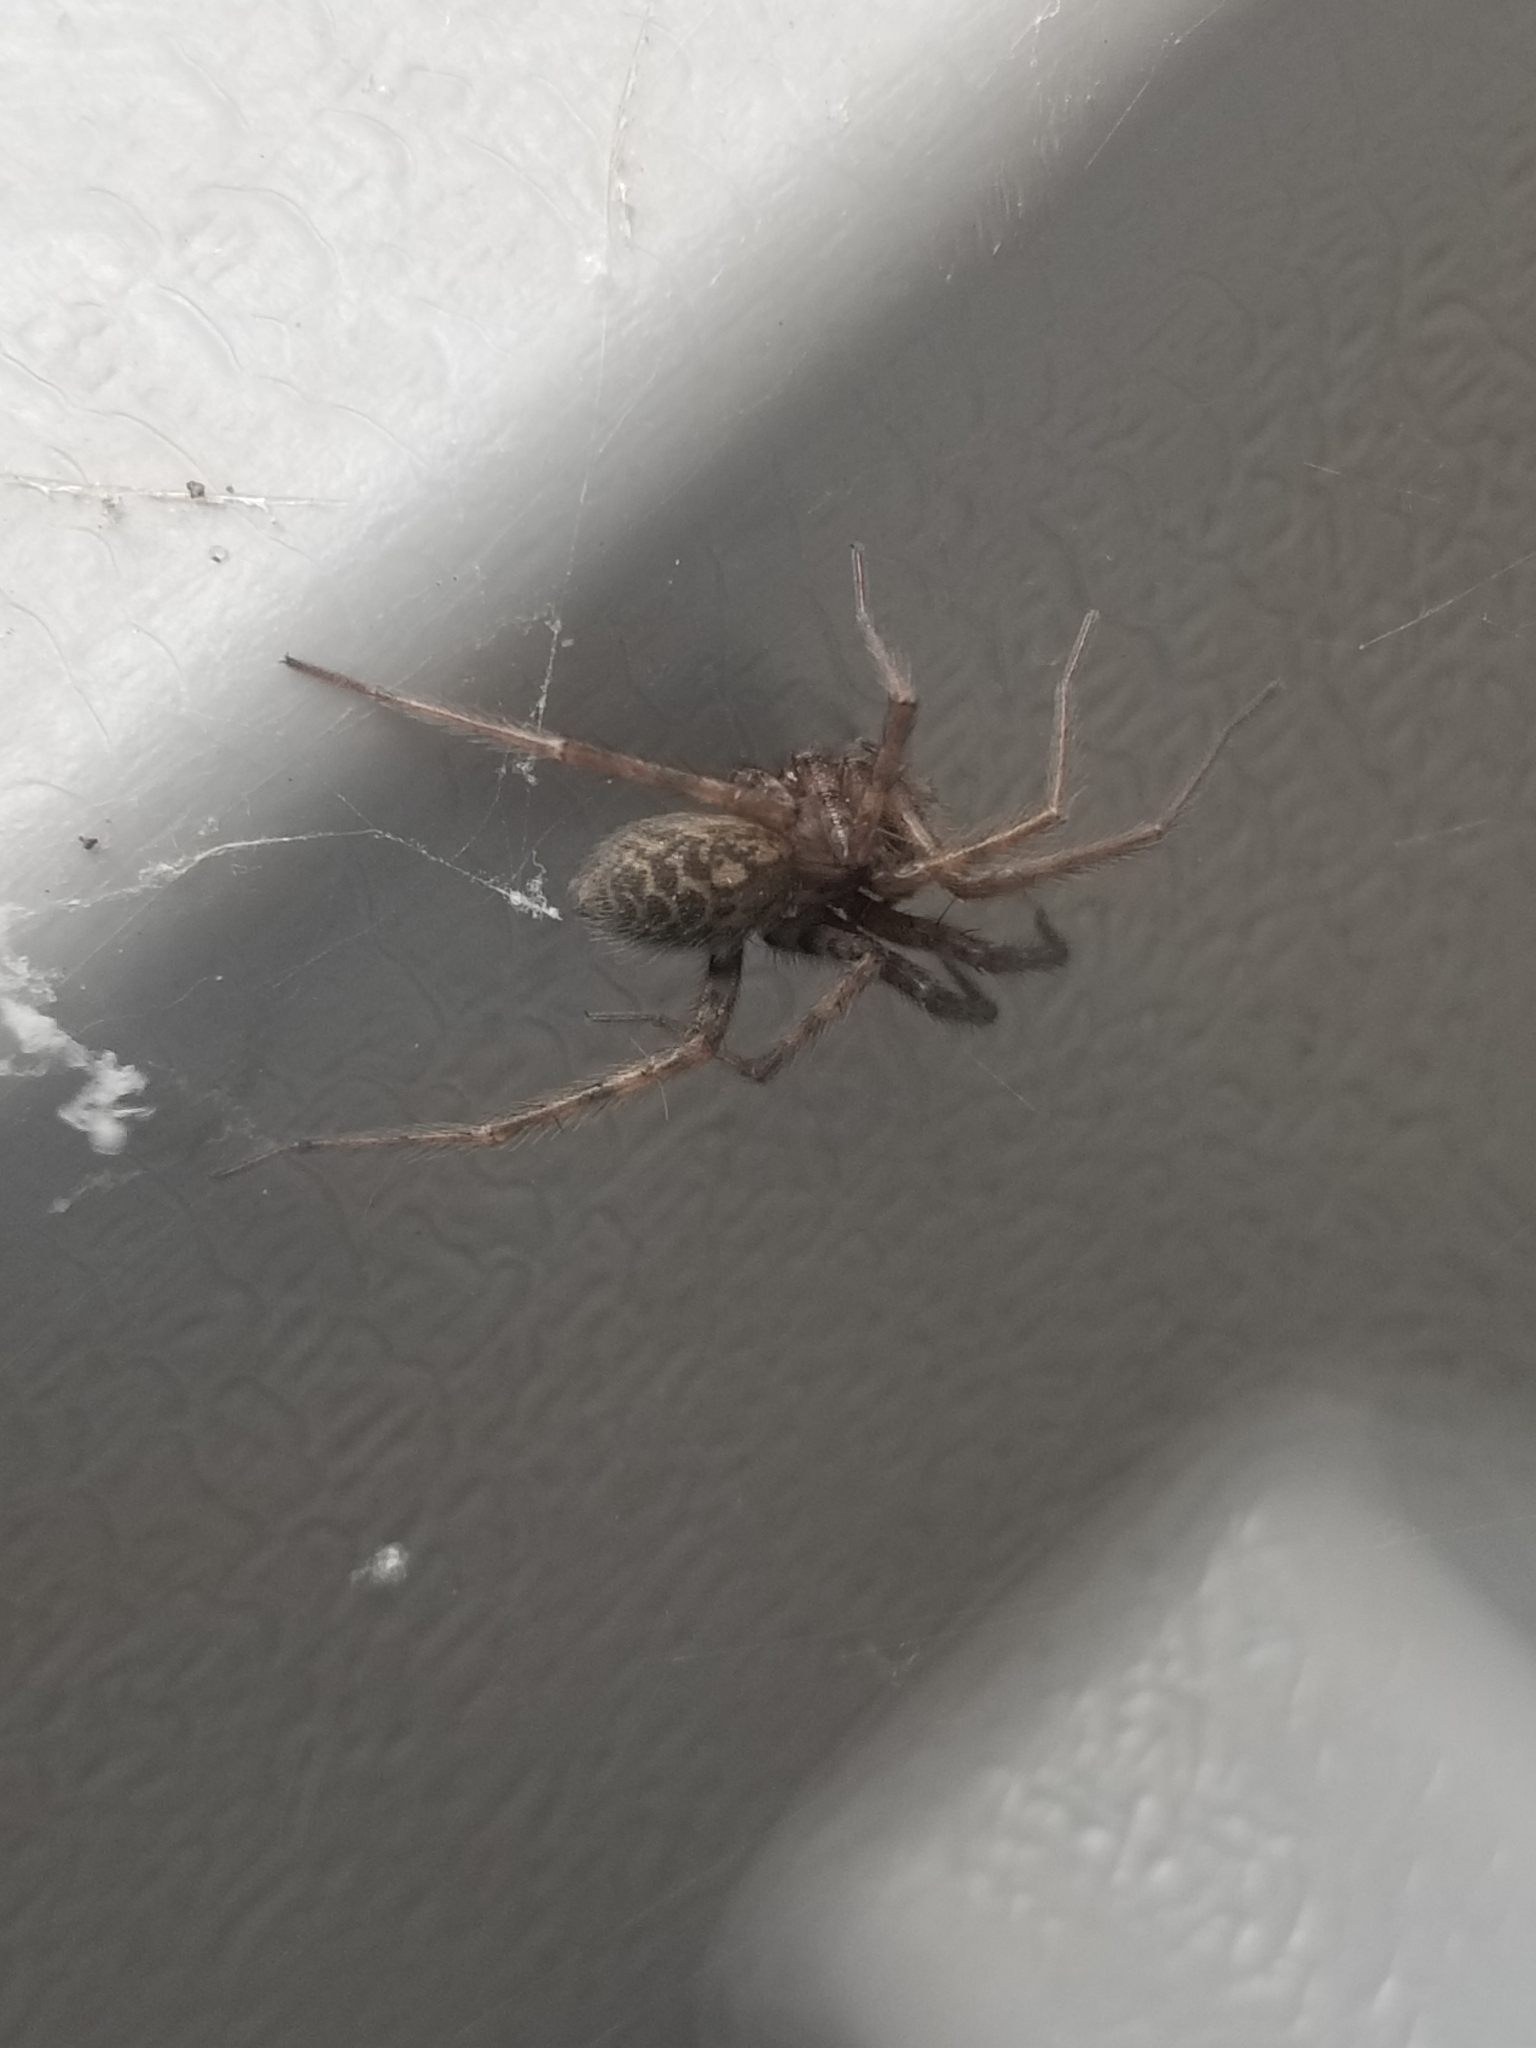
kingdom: Animalia
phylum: Arthropoda
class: Arachnida
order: Araneae
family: Agelenidae
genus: Tegenaria
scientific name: Tegenaria domestica
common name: Barn funnel weaver
